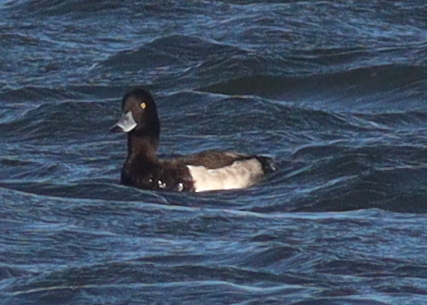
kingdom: Animalia
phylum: Chordata
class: Aves
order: Anseriformes
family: Anatidae
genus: Aythya
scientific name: Aythya fuligula
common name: Tufted duck
